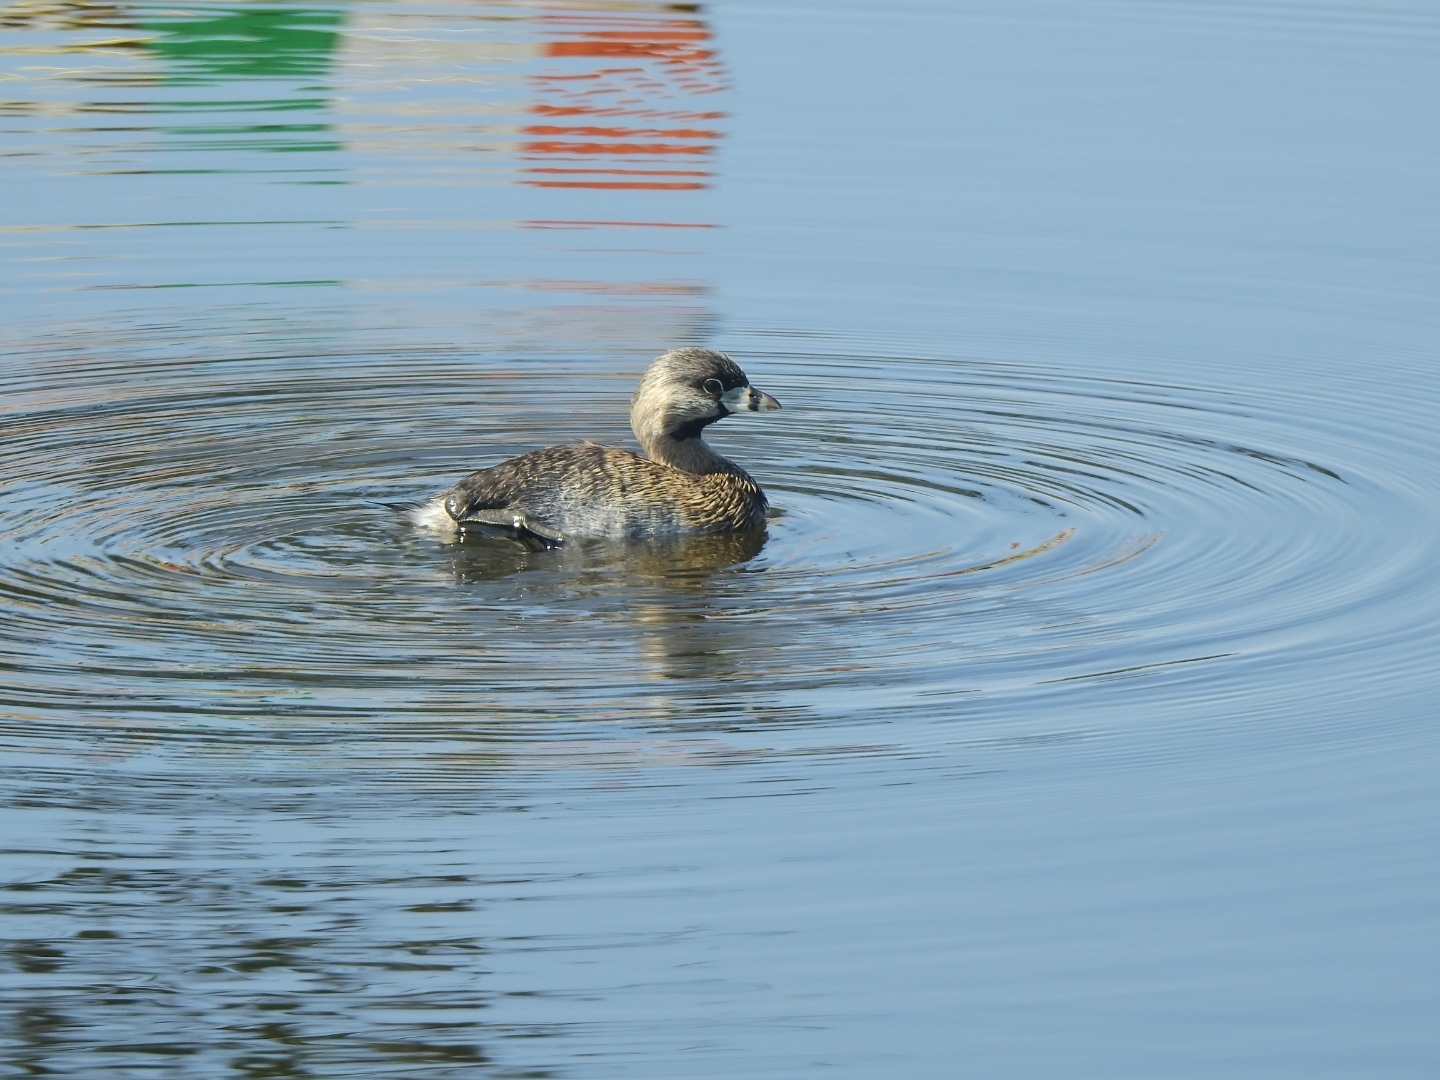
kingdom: Animalia
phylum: Chordata
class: Aves
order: Podicipediformes
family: Podicipedidae
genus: Podilymbus
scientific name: Podilymbus podiceps
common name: Pied-billed grebe
